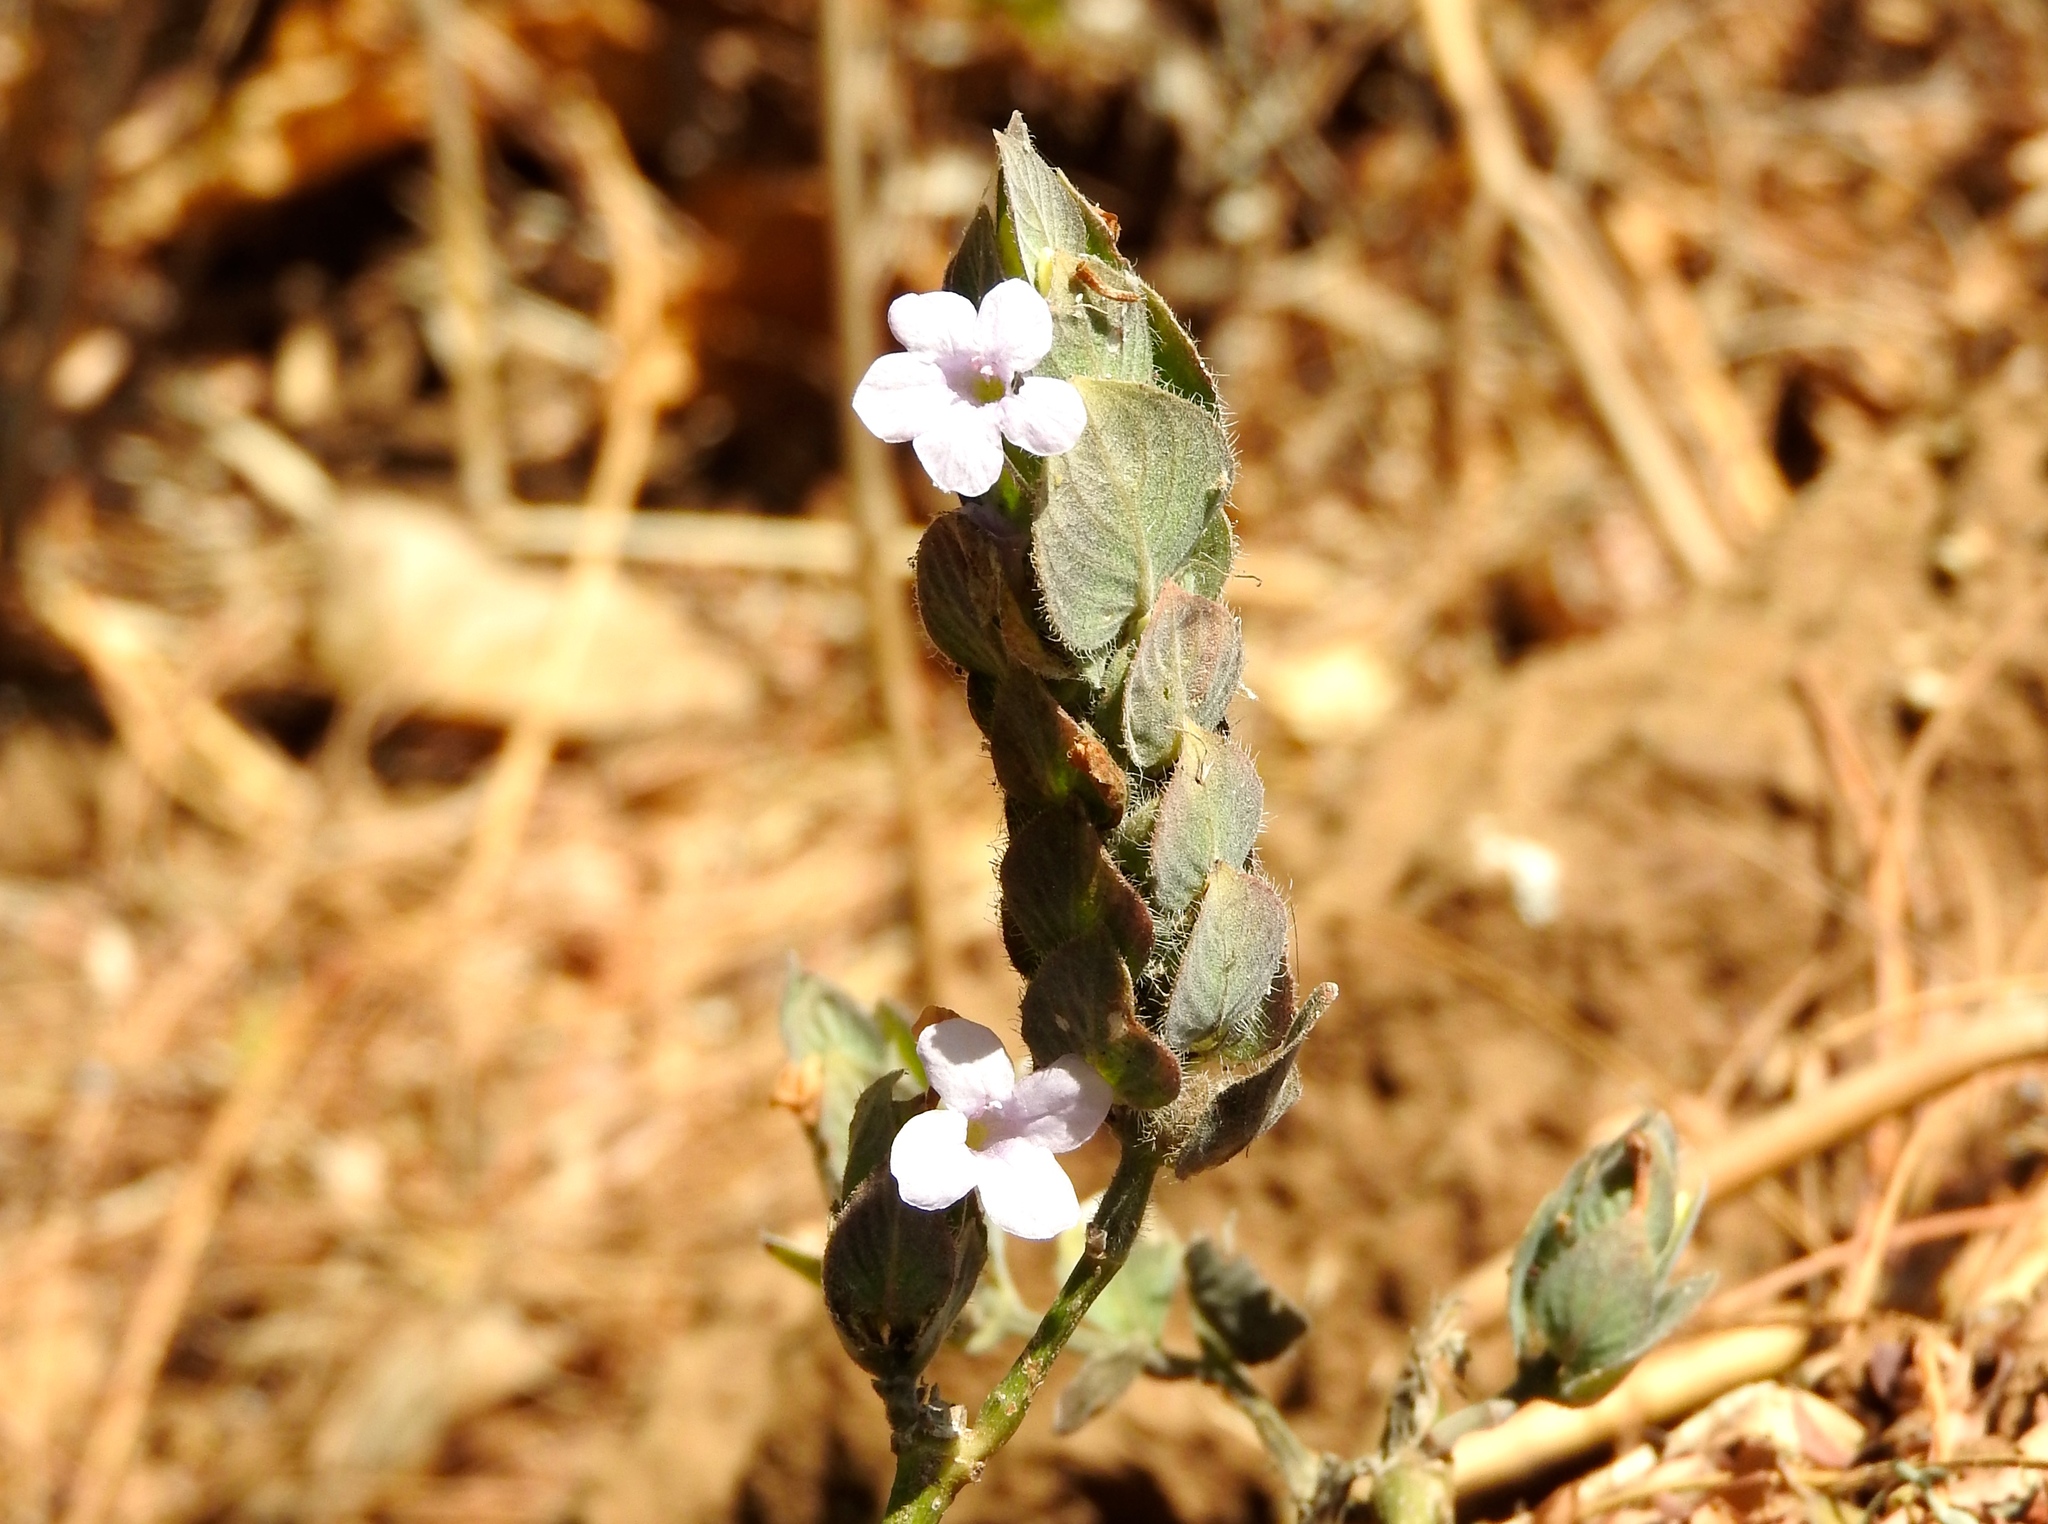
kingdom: Plantae
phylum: Tracheophyta
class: Magnoliopsida
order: Lamiales
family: Acanthaceae
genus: Ruellia
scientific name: Ruellia blechum
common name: Browne's blechum
